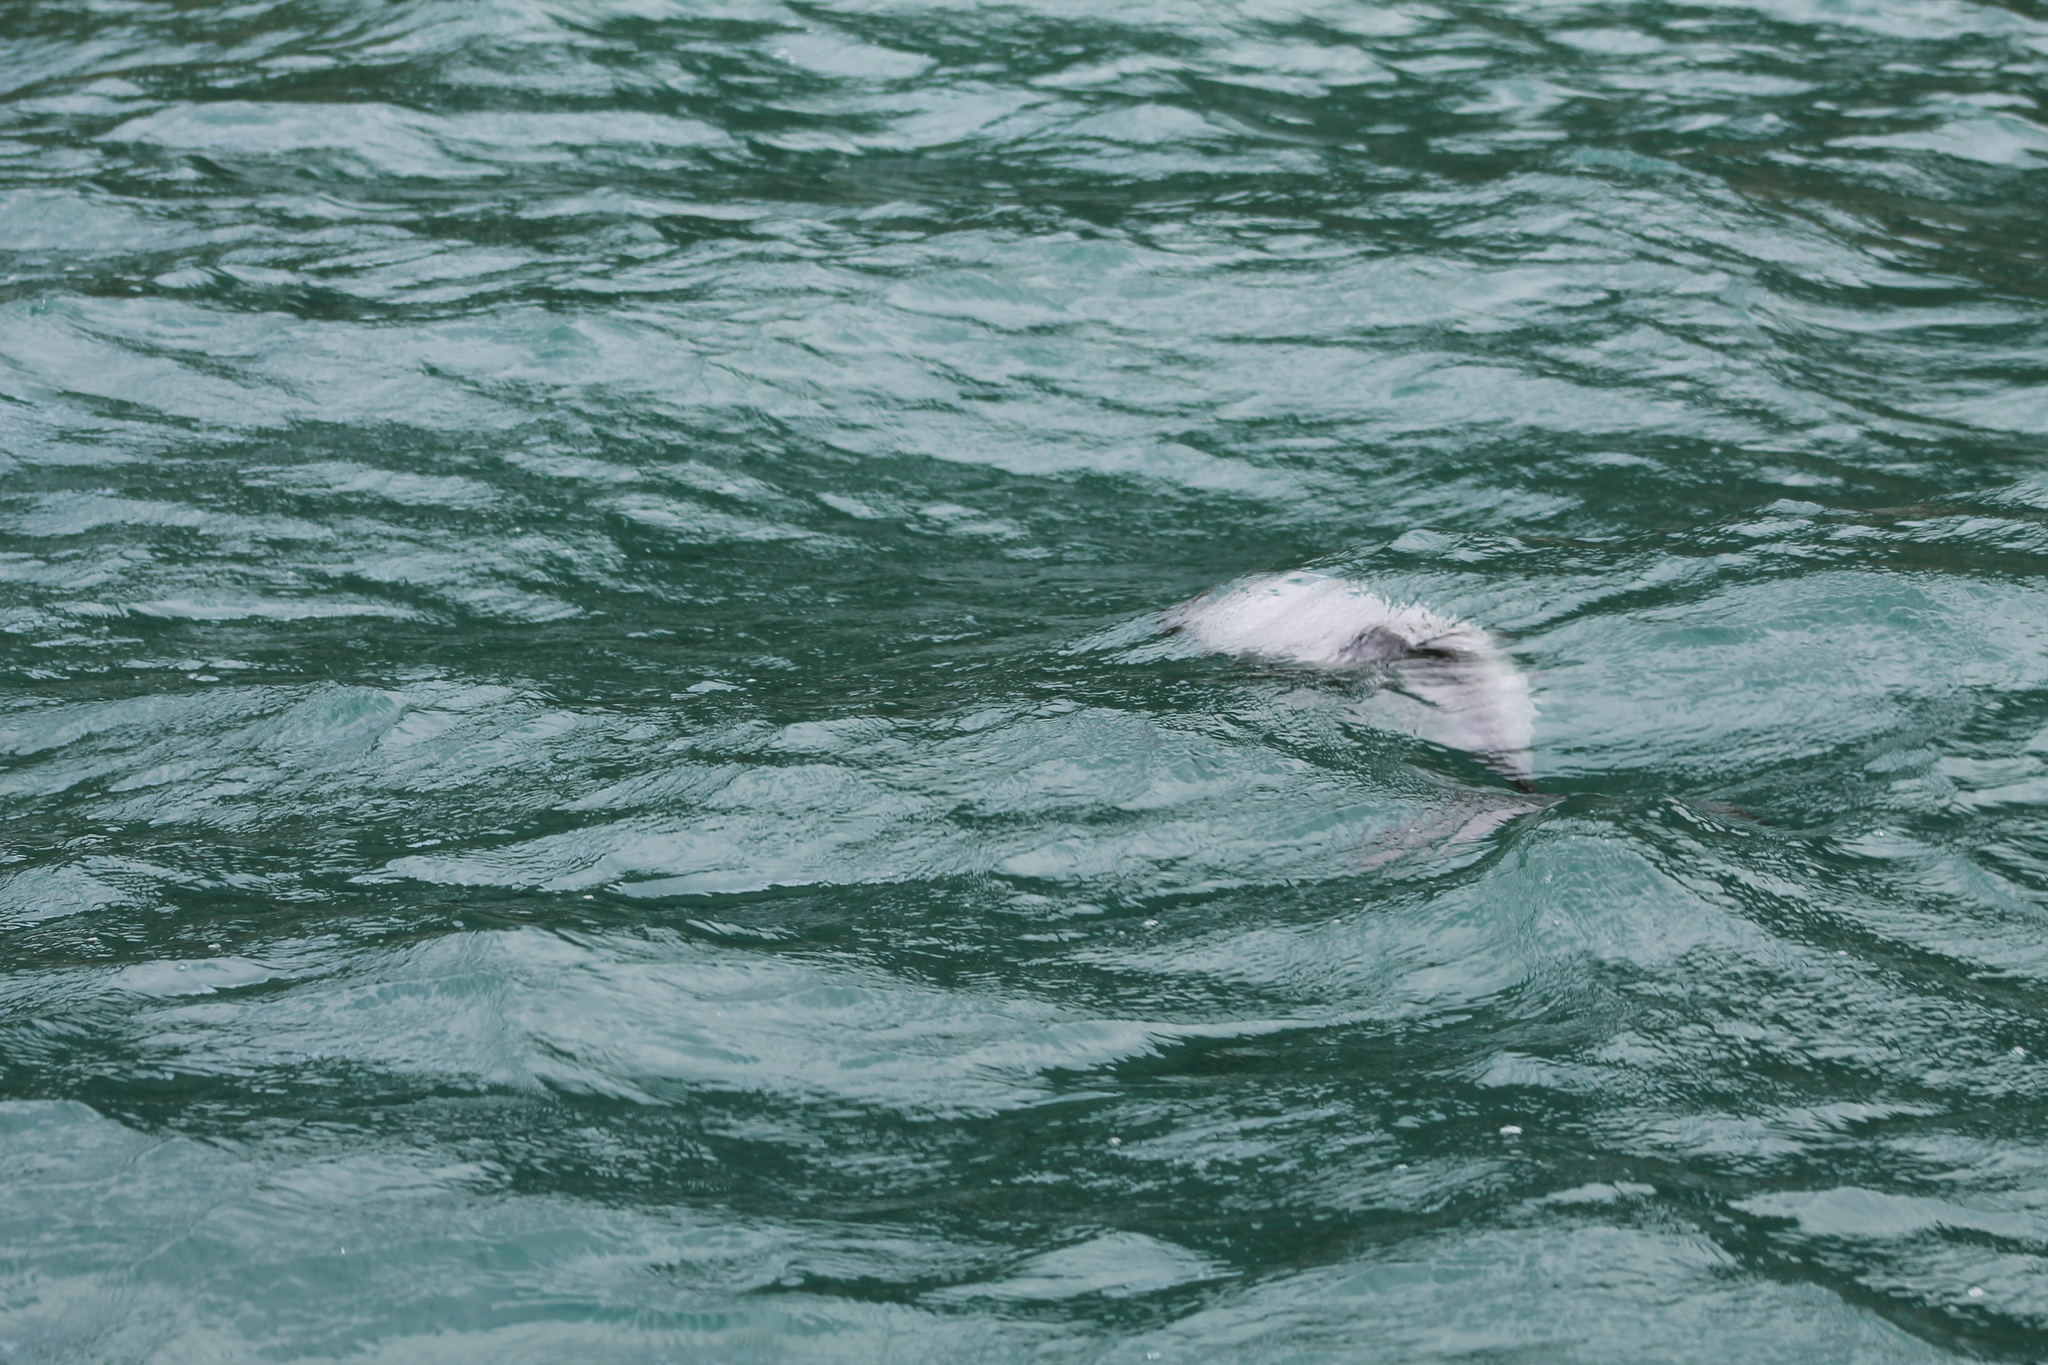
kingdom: Animalia
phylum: Chordata
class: Mammalia
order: Cetacea
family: Delphinidae
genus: Cephalorhynchus
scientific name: Cephalorhynchus hectori
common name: Hector's dolphin
